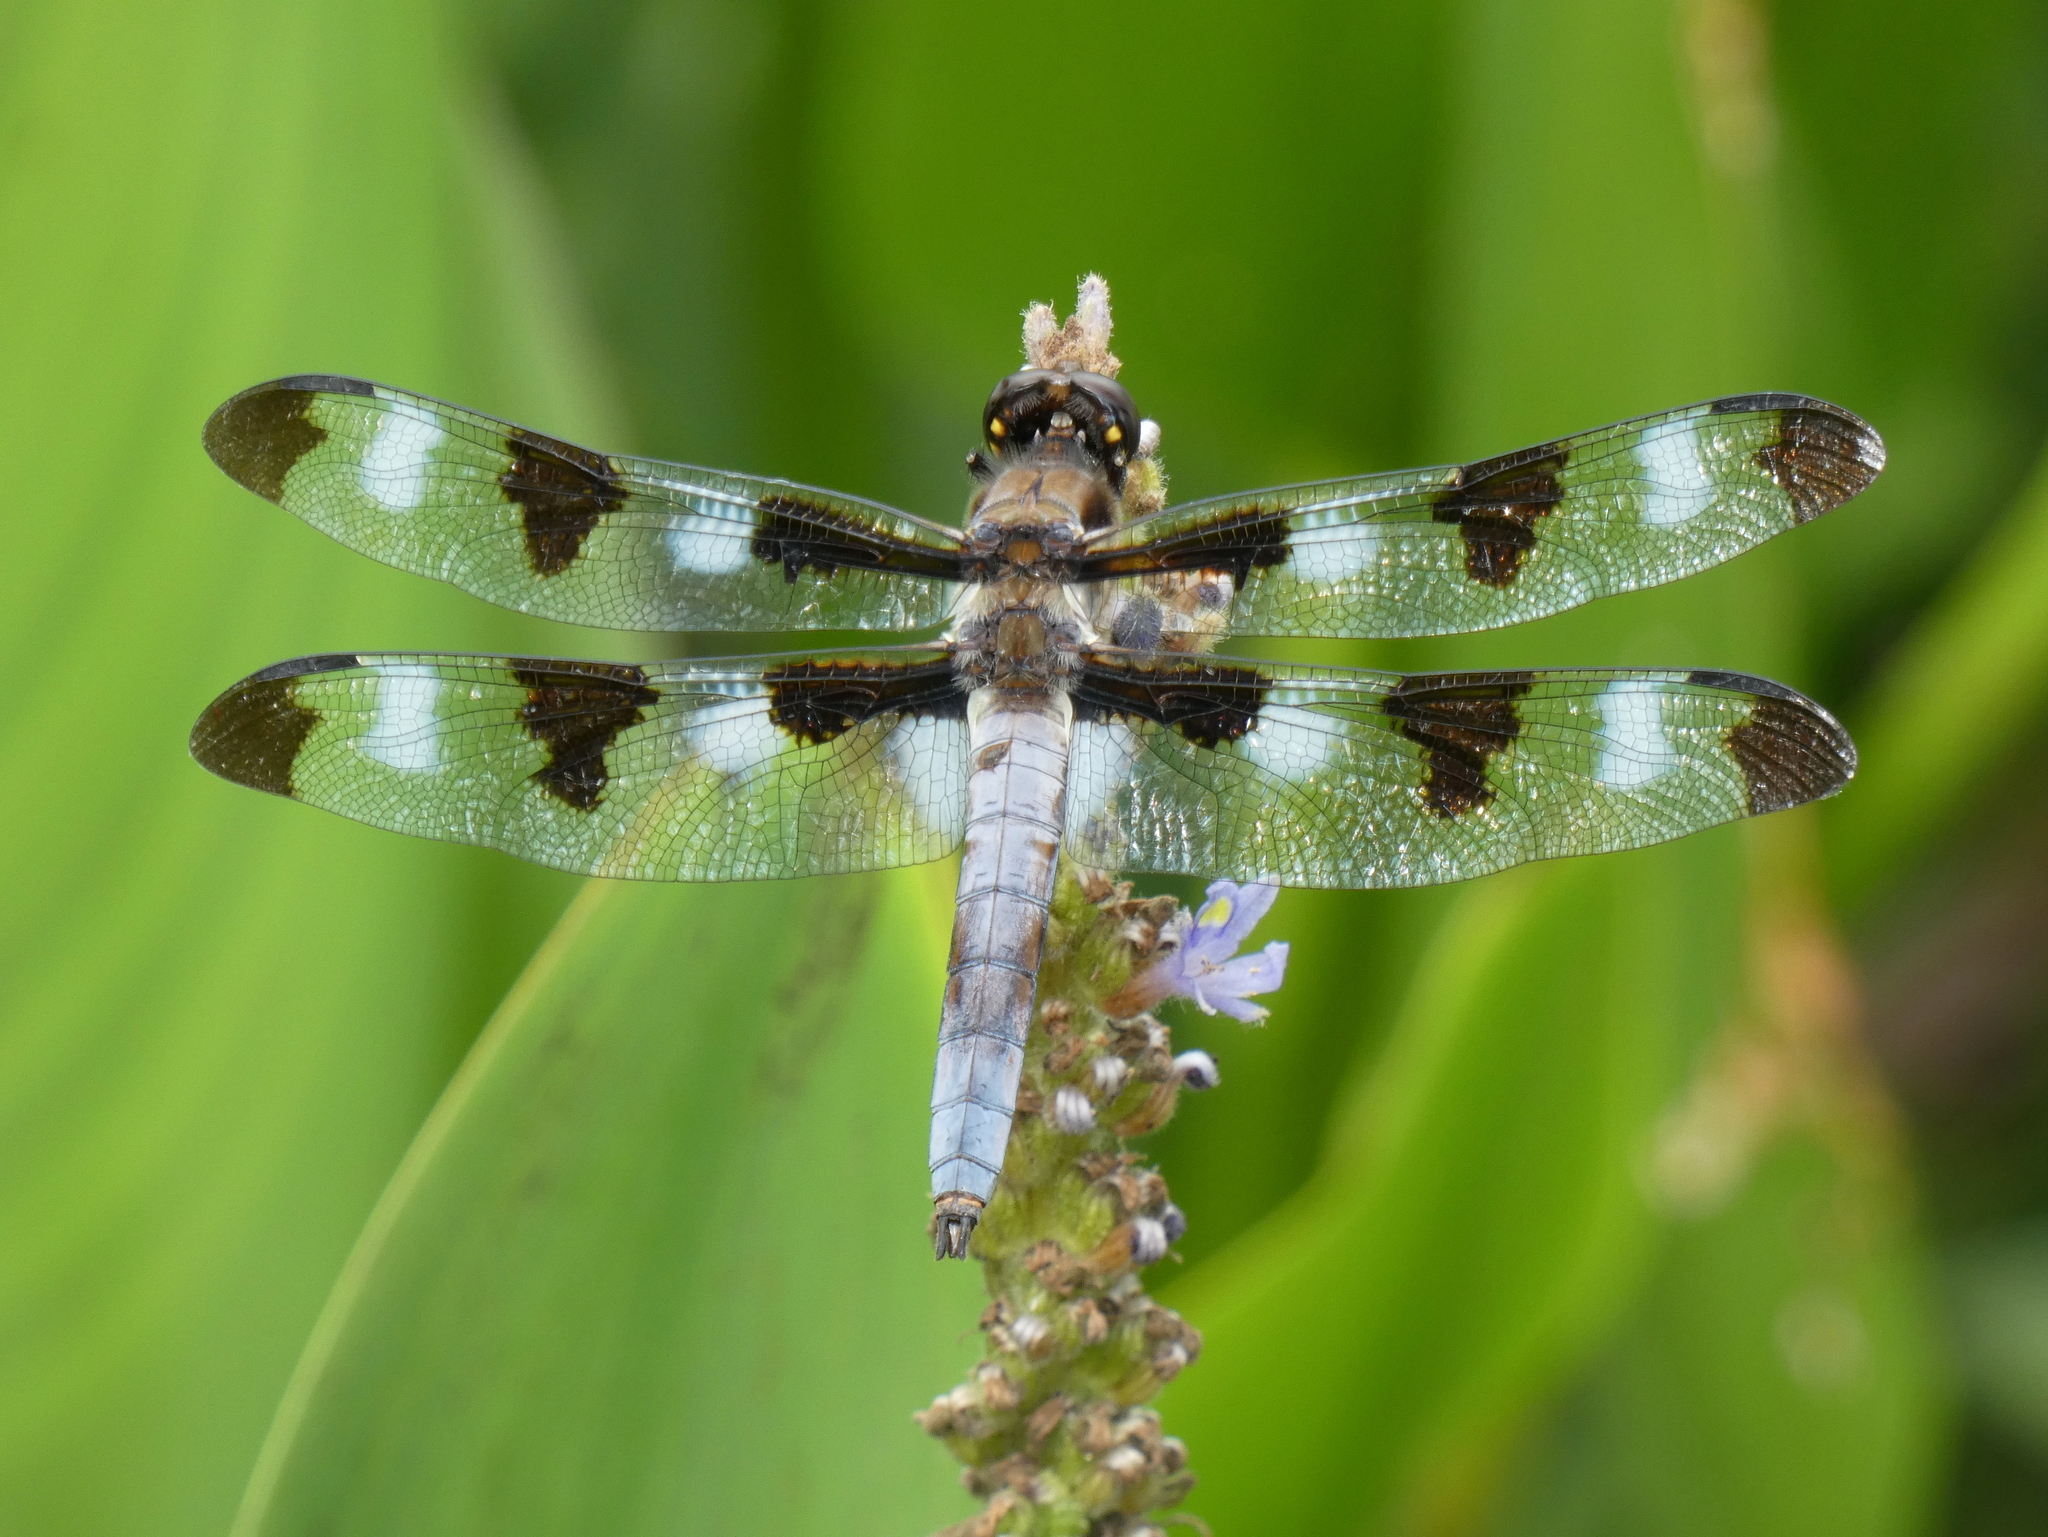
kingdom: Animalia
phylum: Arthropoda
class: Insecta
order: Odonata
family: Libellulidae
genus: Libellula
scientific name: Libellula pulchella
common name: Twelve-spotted skimmer
